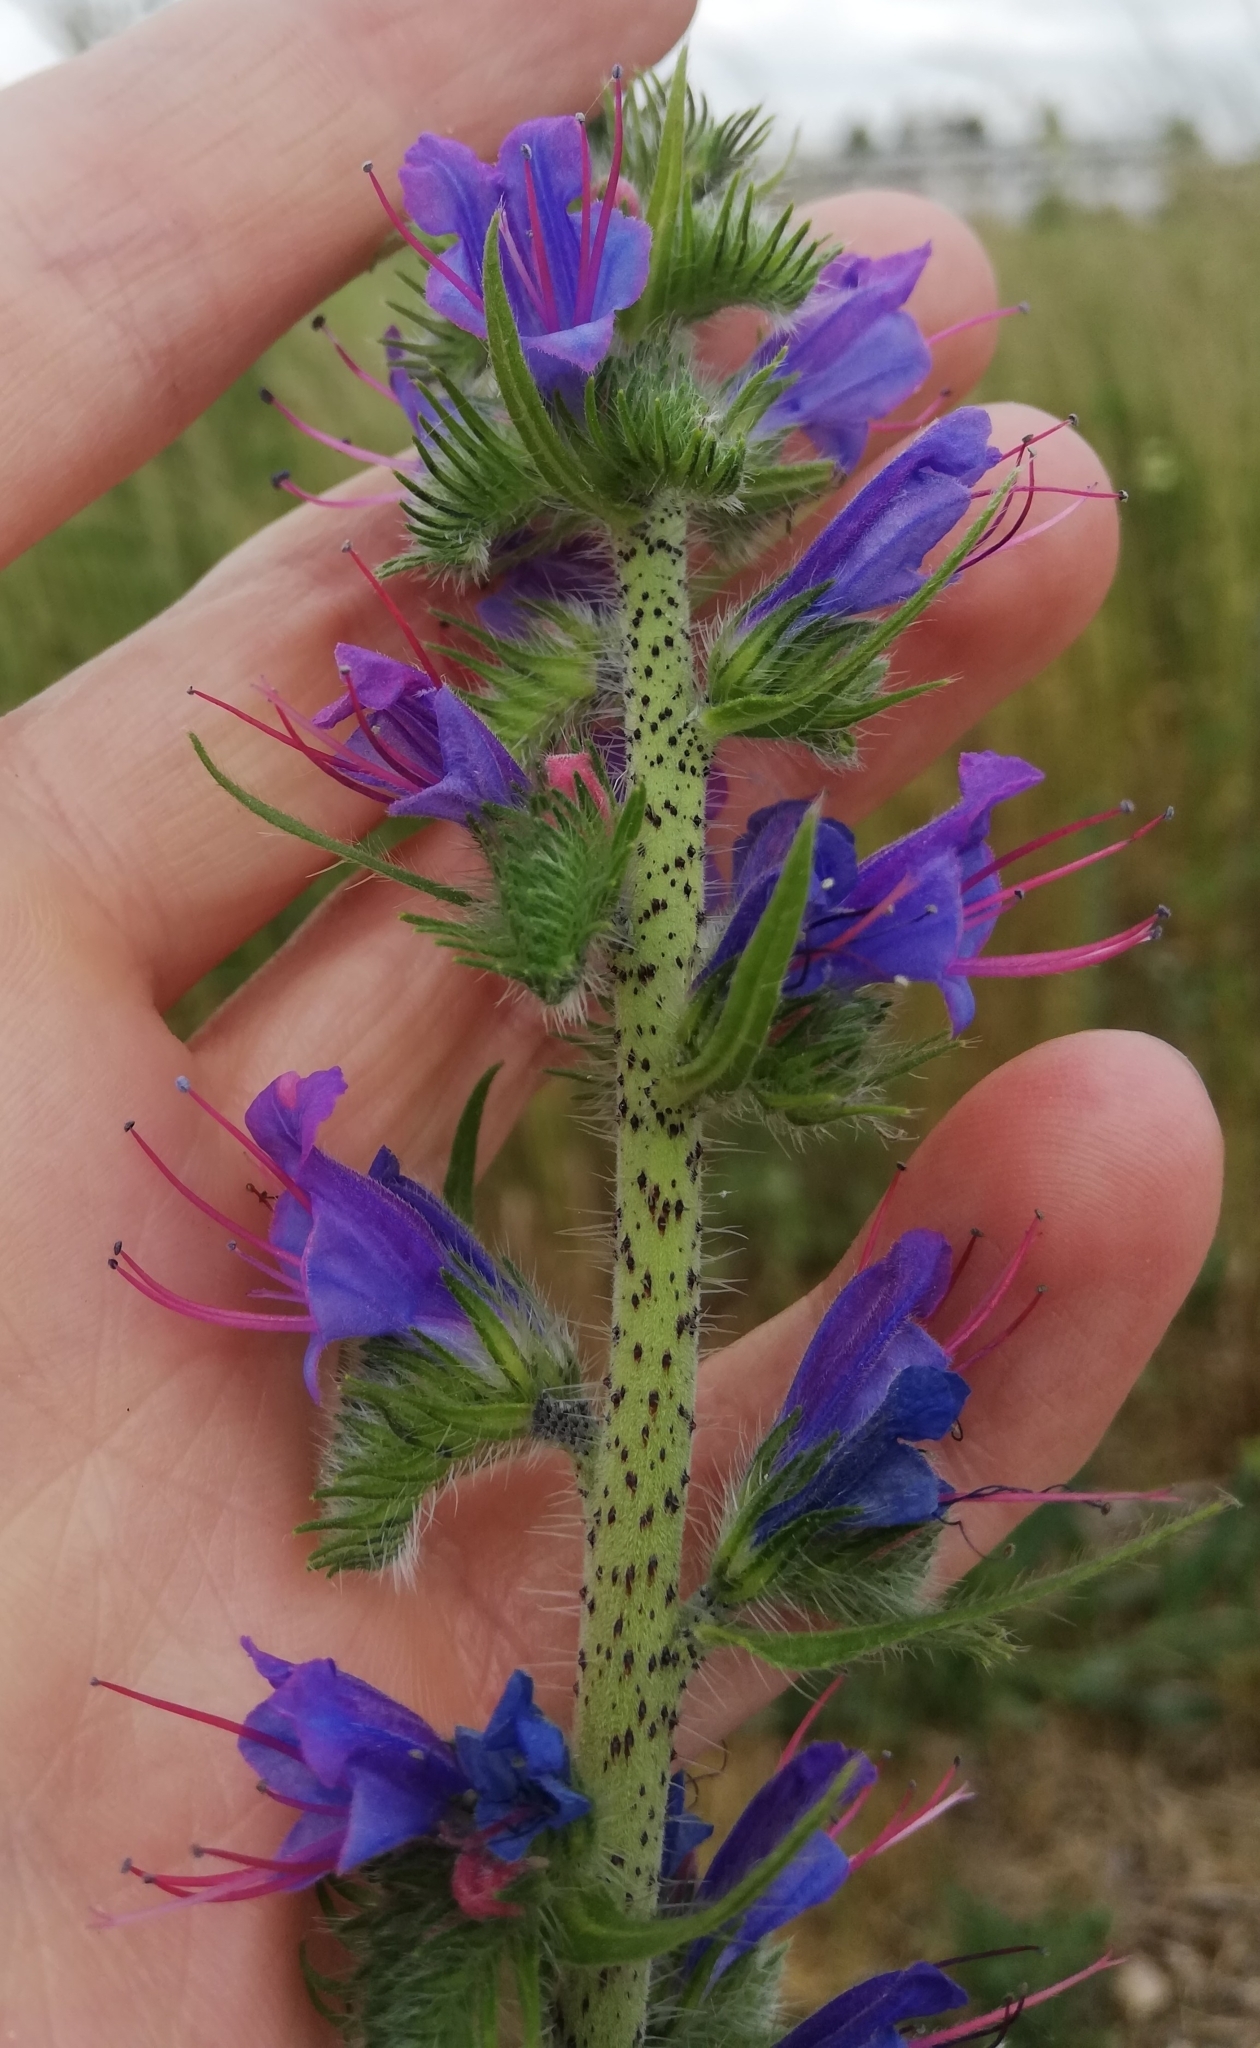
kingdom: Plantae
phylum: Tracheophyta
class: Magnoliopsida
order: Boraginales
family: Boraginaceae
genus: Echium
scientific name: Echium vulgare
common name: Common viper's bugloss
